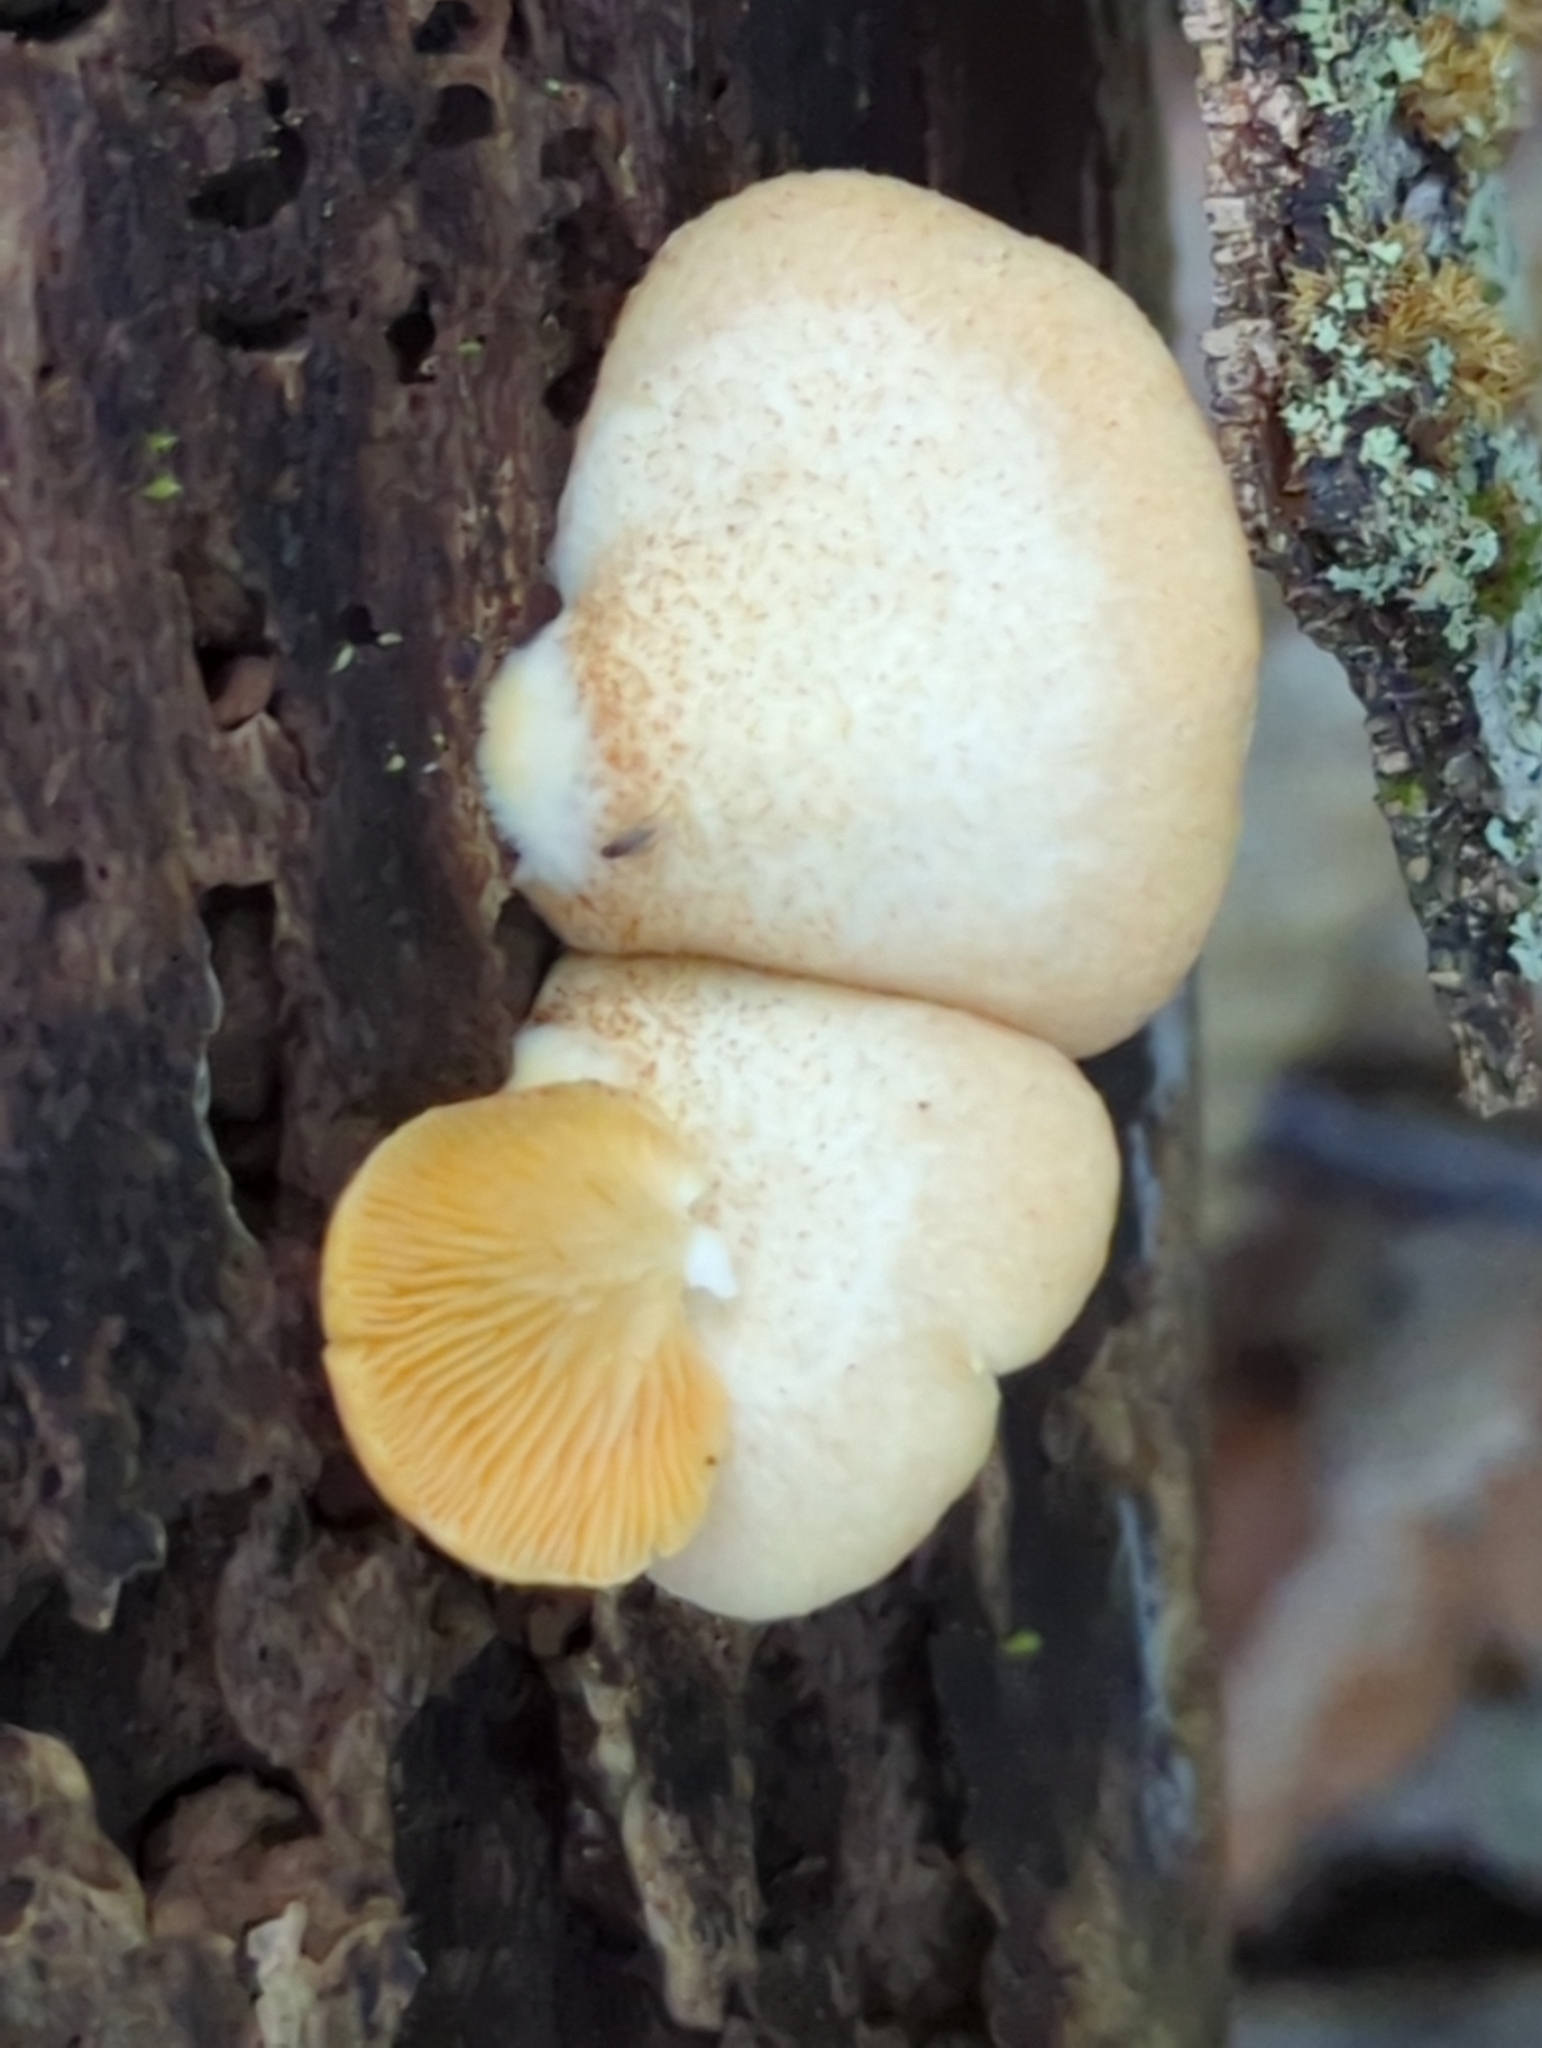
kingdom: Fungi
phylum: Basidiomycota
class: Agaricomycetes
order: Agaricales
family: Crepidotaceae
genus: Crepidotus
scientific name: Crepidotus crocophyllus
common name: Saffron oysterling
